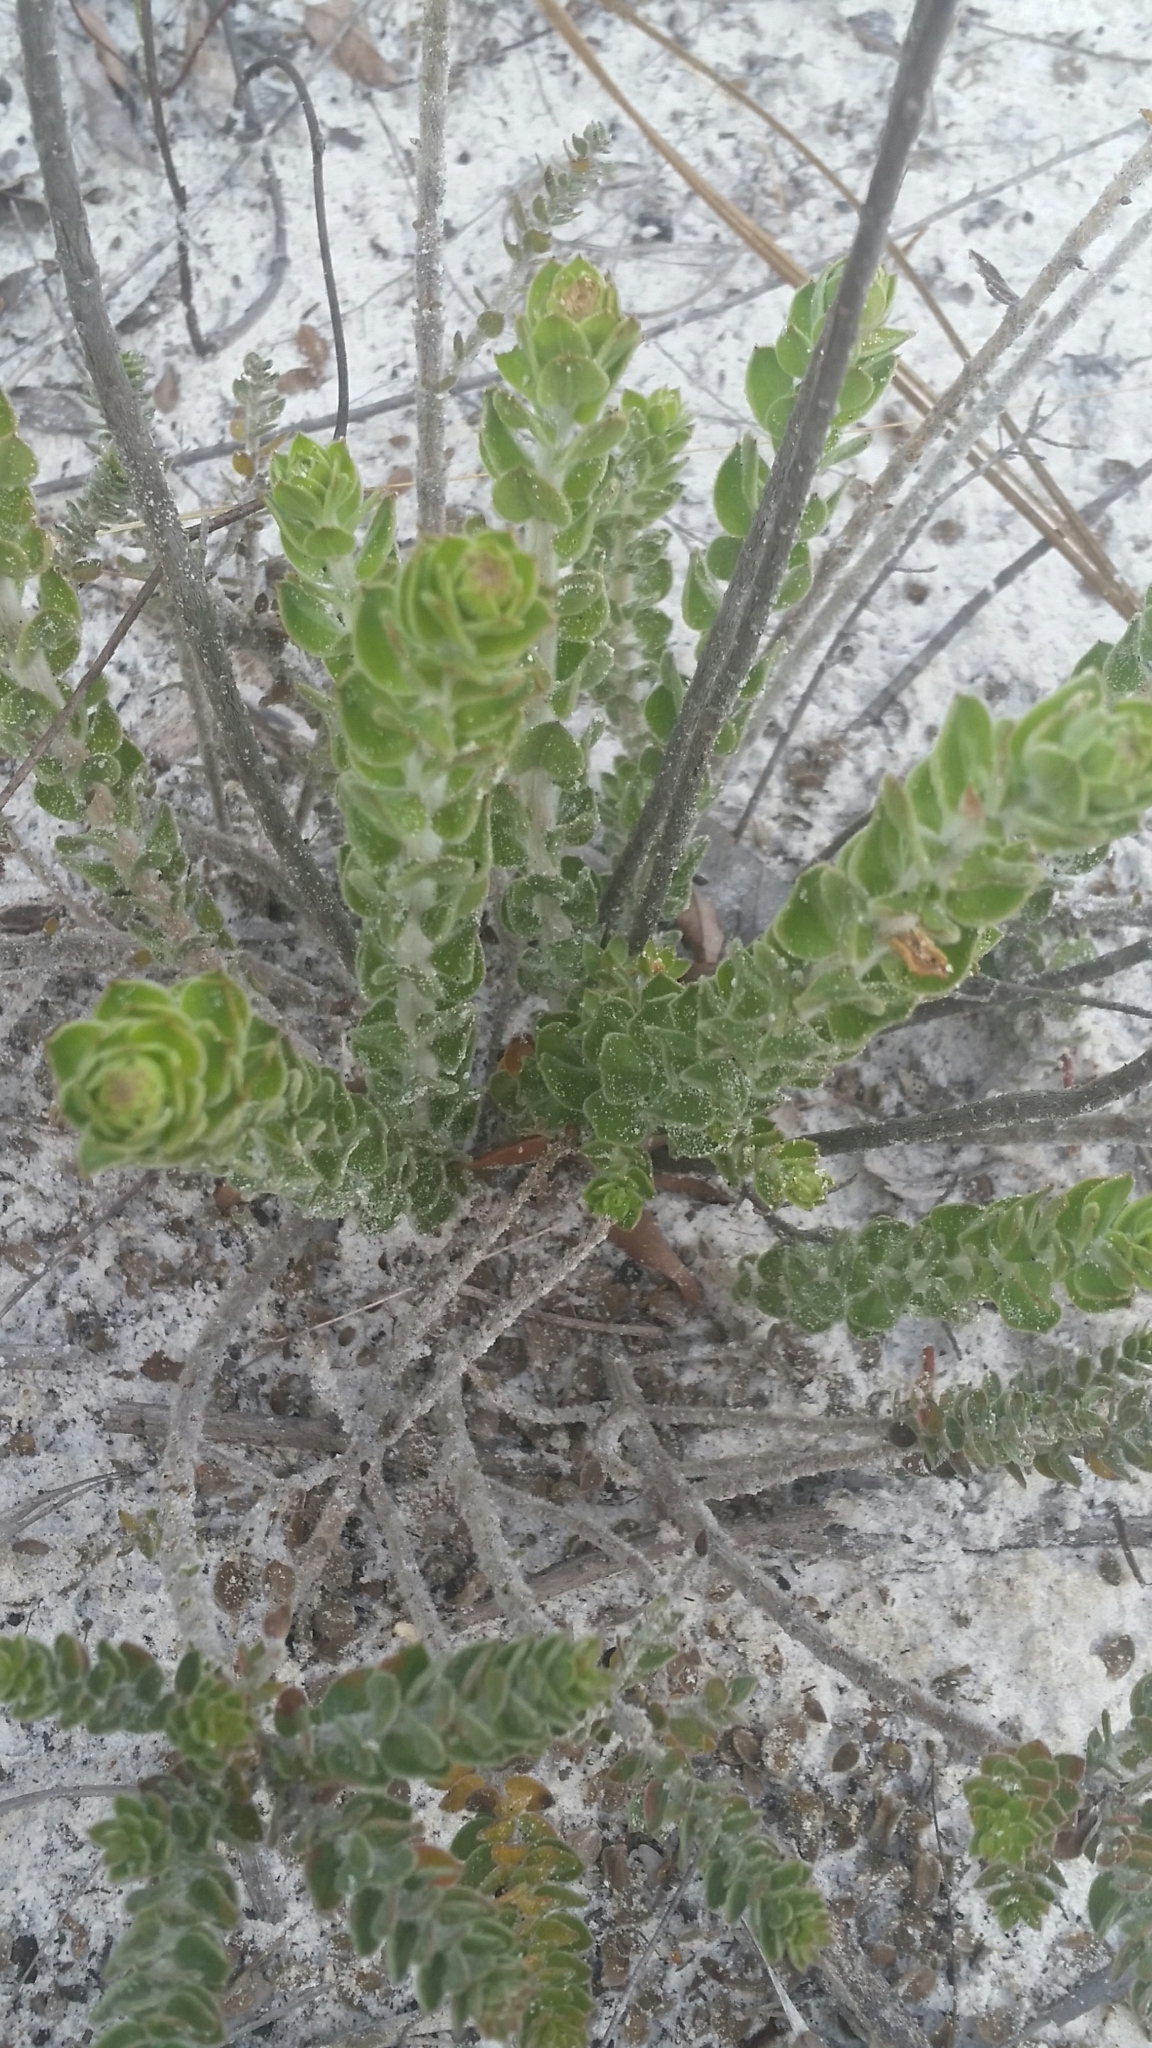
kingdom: Plantae
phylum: Tracheophyta
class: Magnoliopsida
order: Malvales
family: Cistaceae
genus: Lechea
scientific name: Lechea cernua
